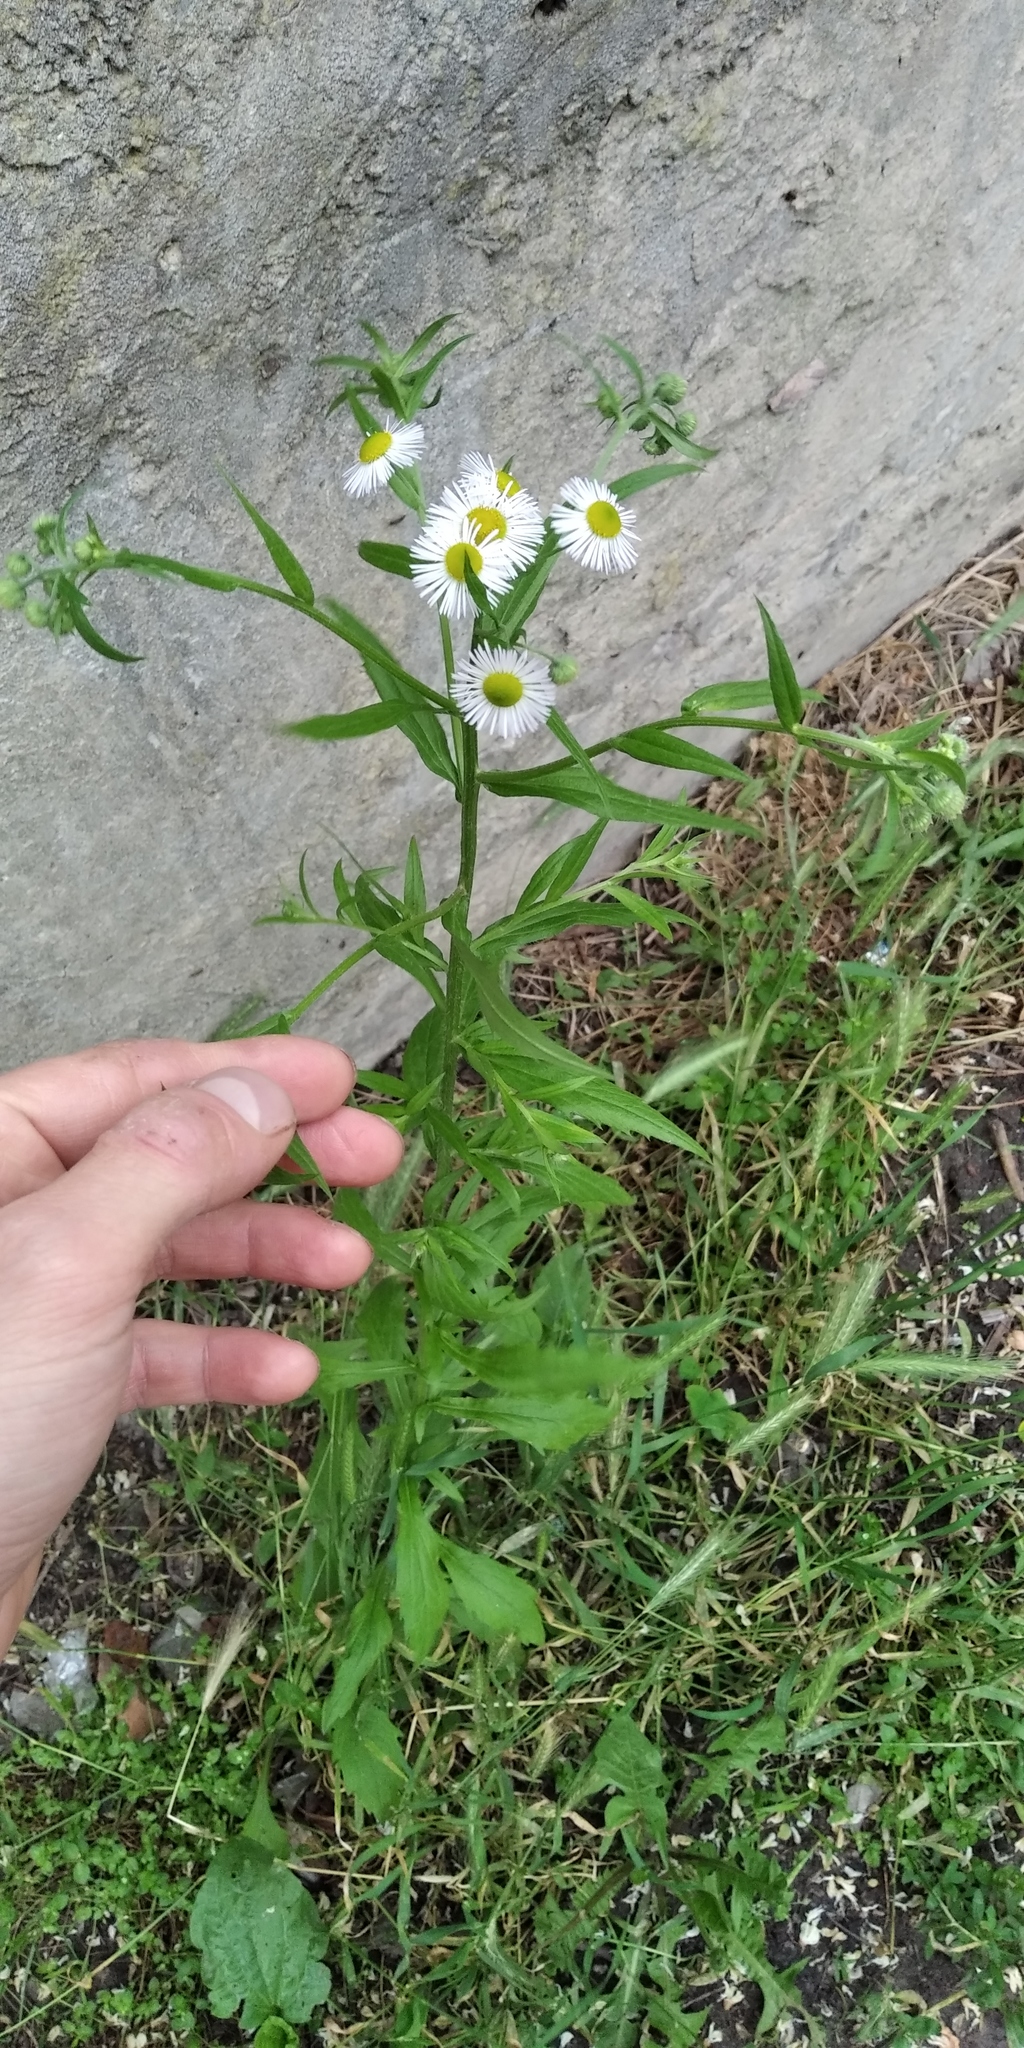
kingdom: Plantae
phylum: Tracheophyta
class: Magnoliopsida
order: Asterales
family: Asteraceae
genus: Erigeron
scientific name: Erigeron annuus
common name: Tall fleabane
